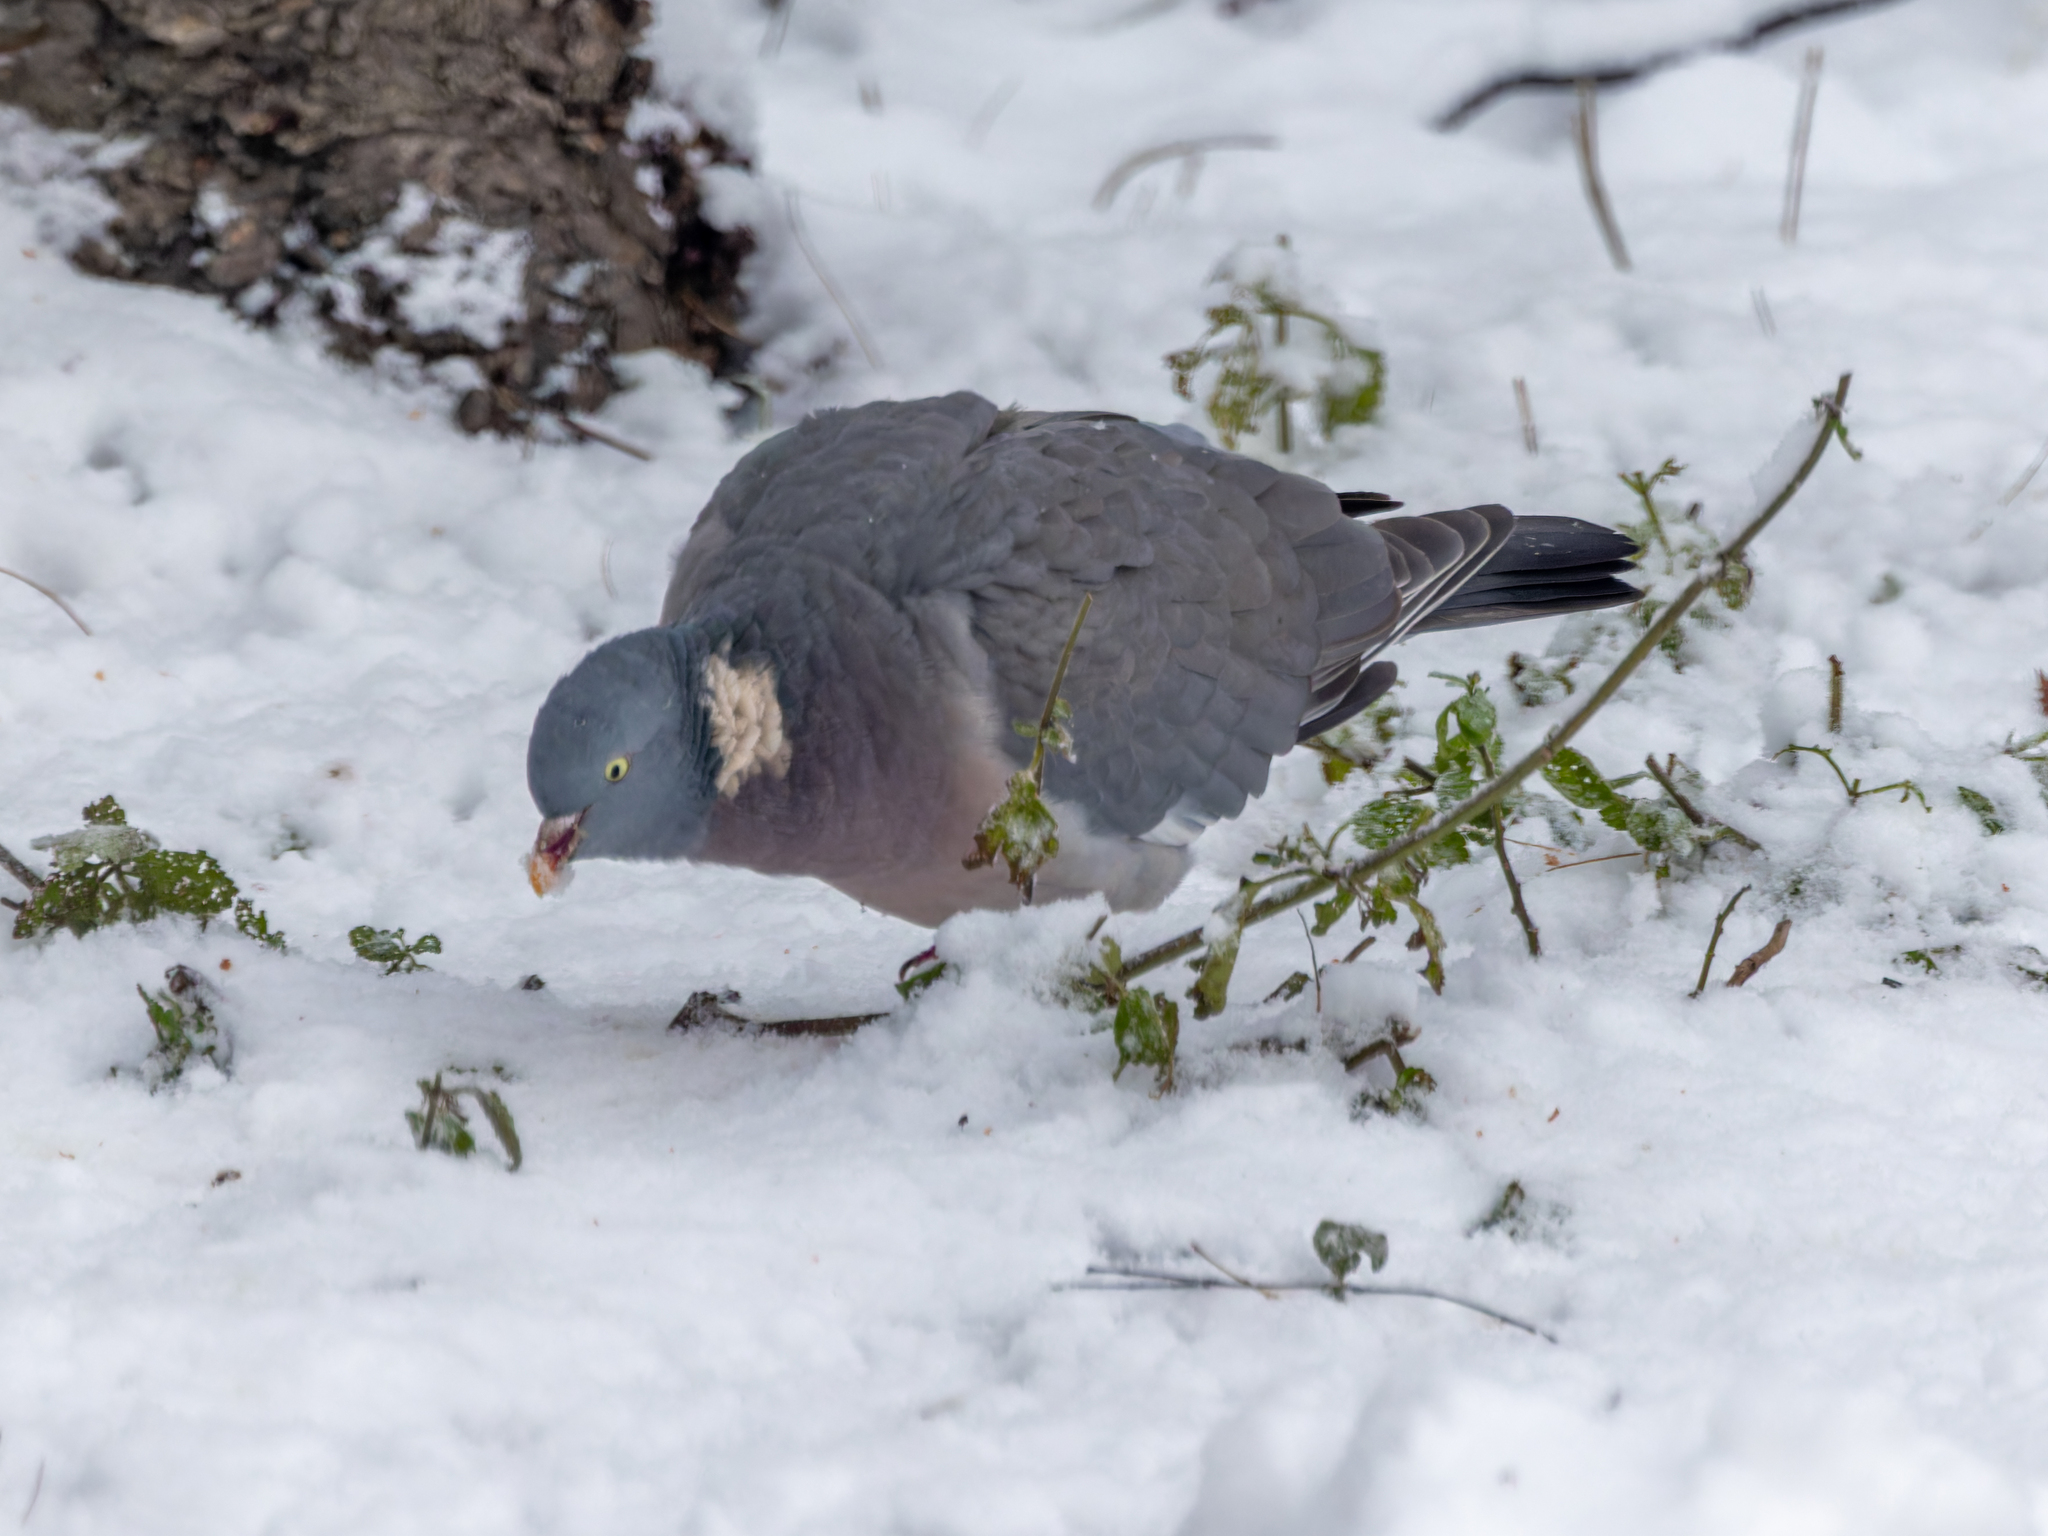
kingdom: Animalia
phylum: Chordata
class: Aves
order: Columbiformes
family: Columbidae
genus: Columba
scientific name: Columba palumbus
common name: Common wood pigeon
